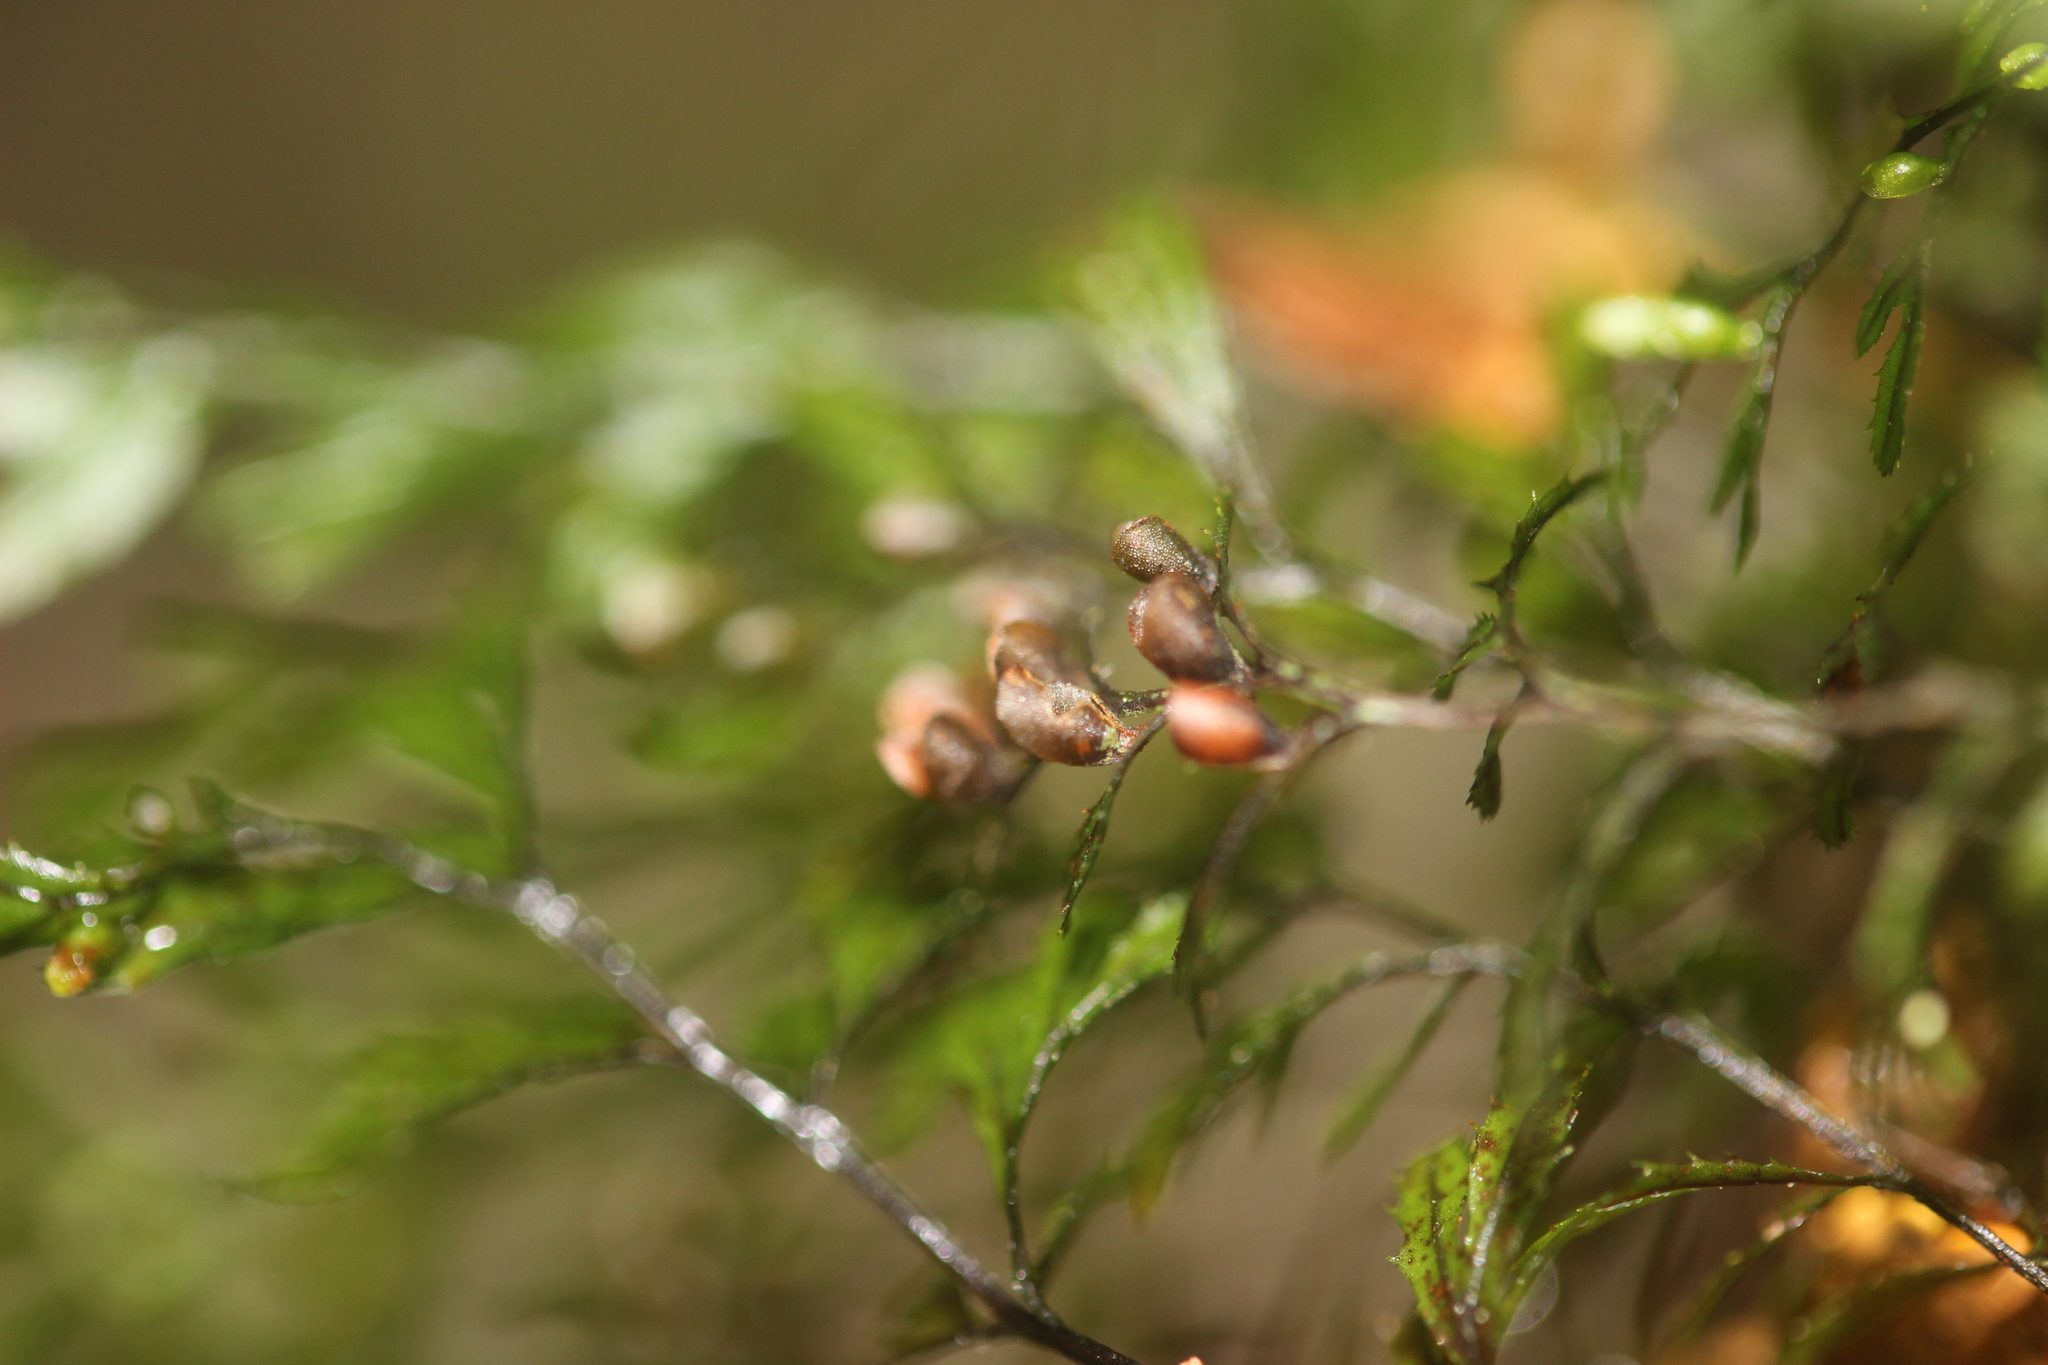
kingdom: Plantae
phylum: Tracheophyta
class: Polypodiopsida
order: Hymenophyllales
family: Hymenophyllaceae
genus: Hymenophyllum
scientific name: Hymenophyllum peltatum
